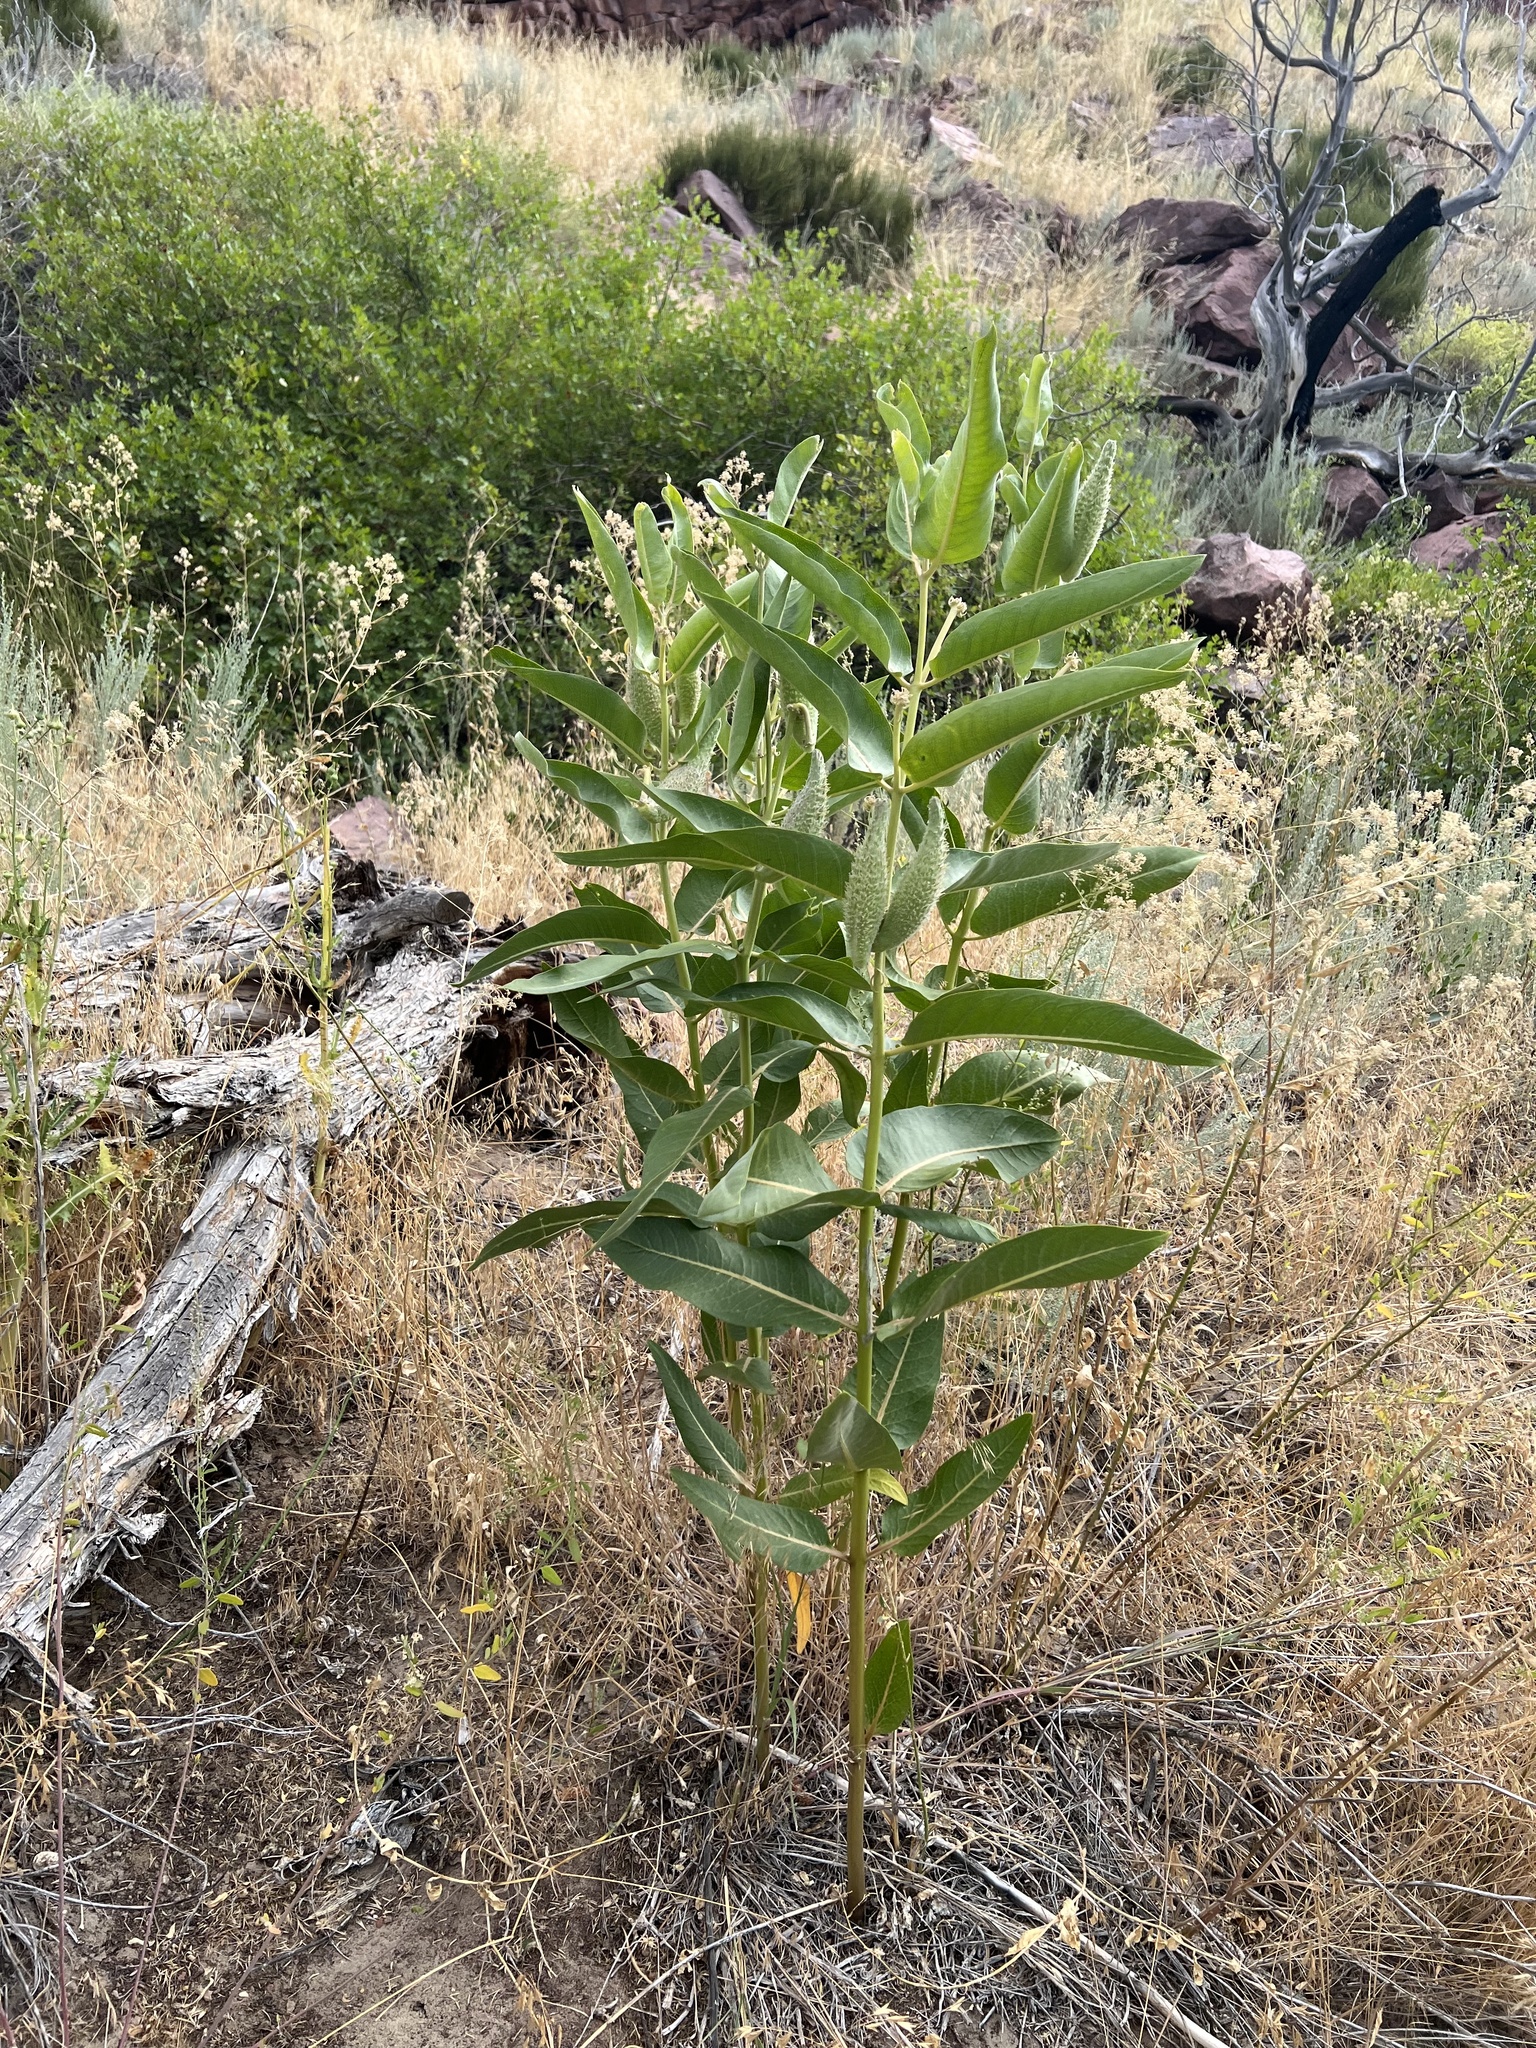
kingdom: Plantae
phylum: Tracheophyta
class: Magnoliopsida
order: Gentianales
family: Apocynaceae
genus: Asclepias
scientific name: Asclepias speciosa
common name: Showy milkweed
